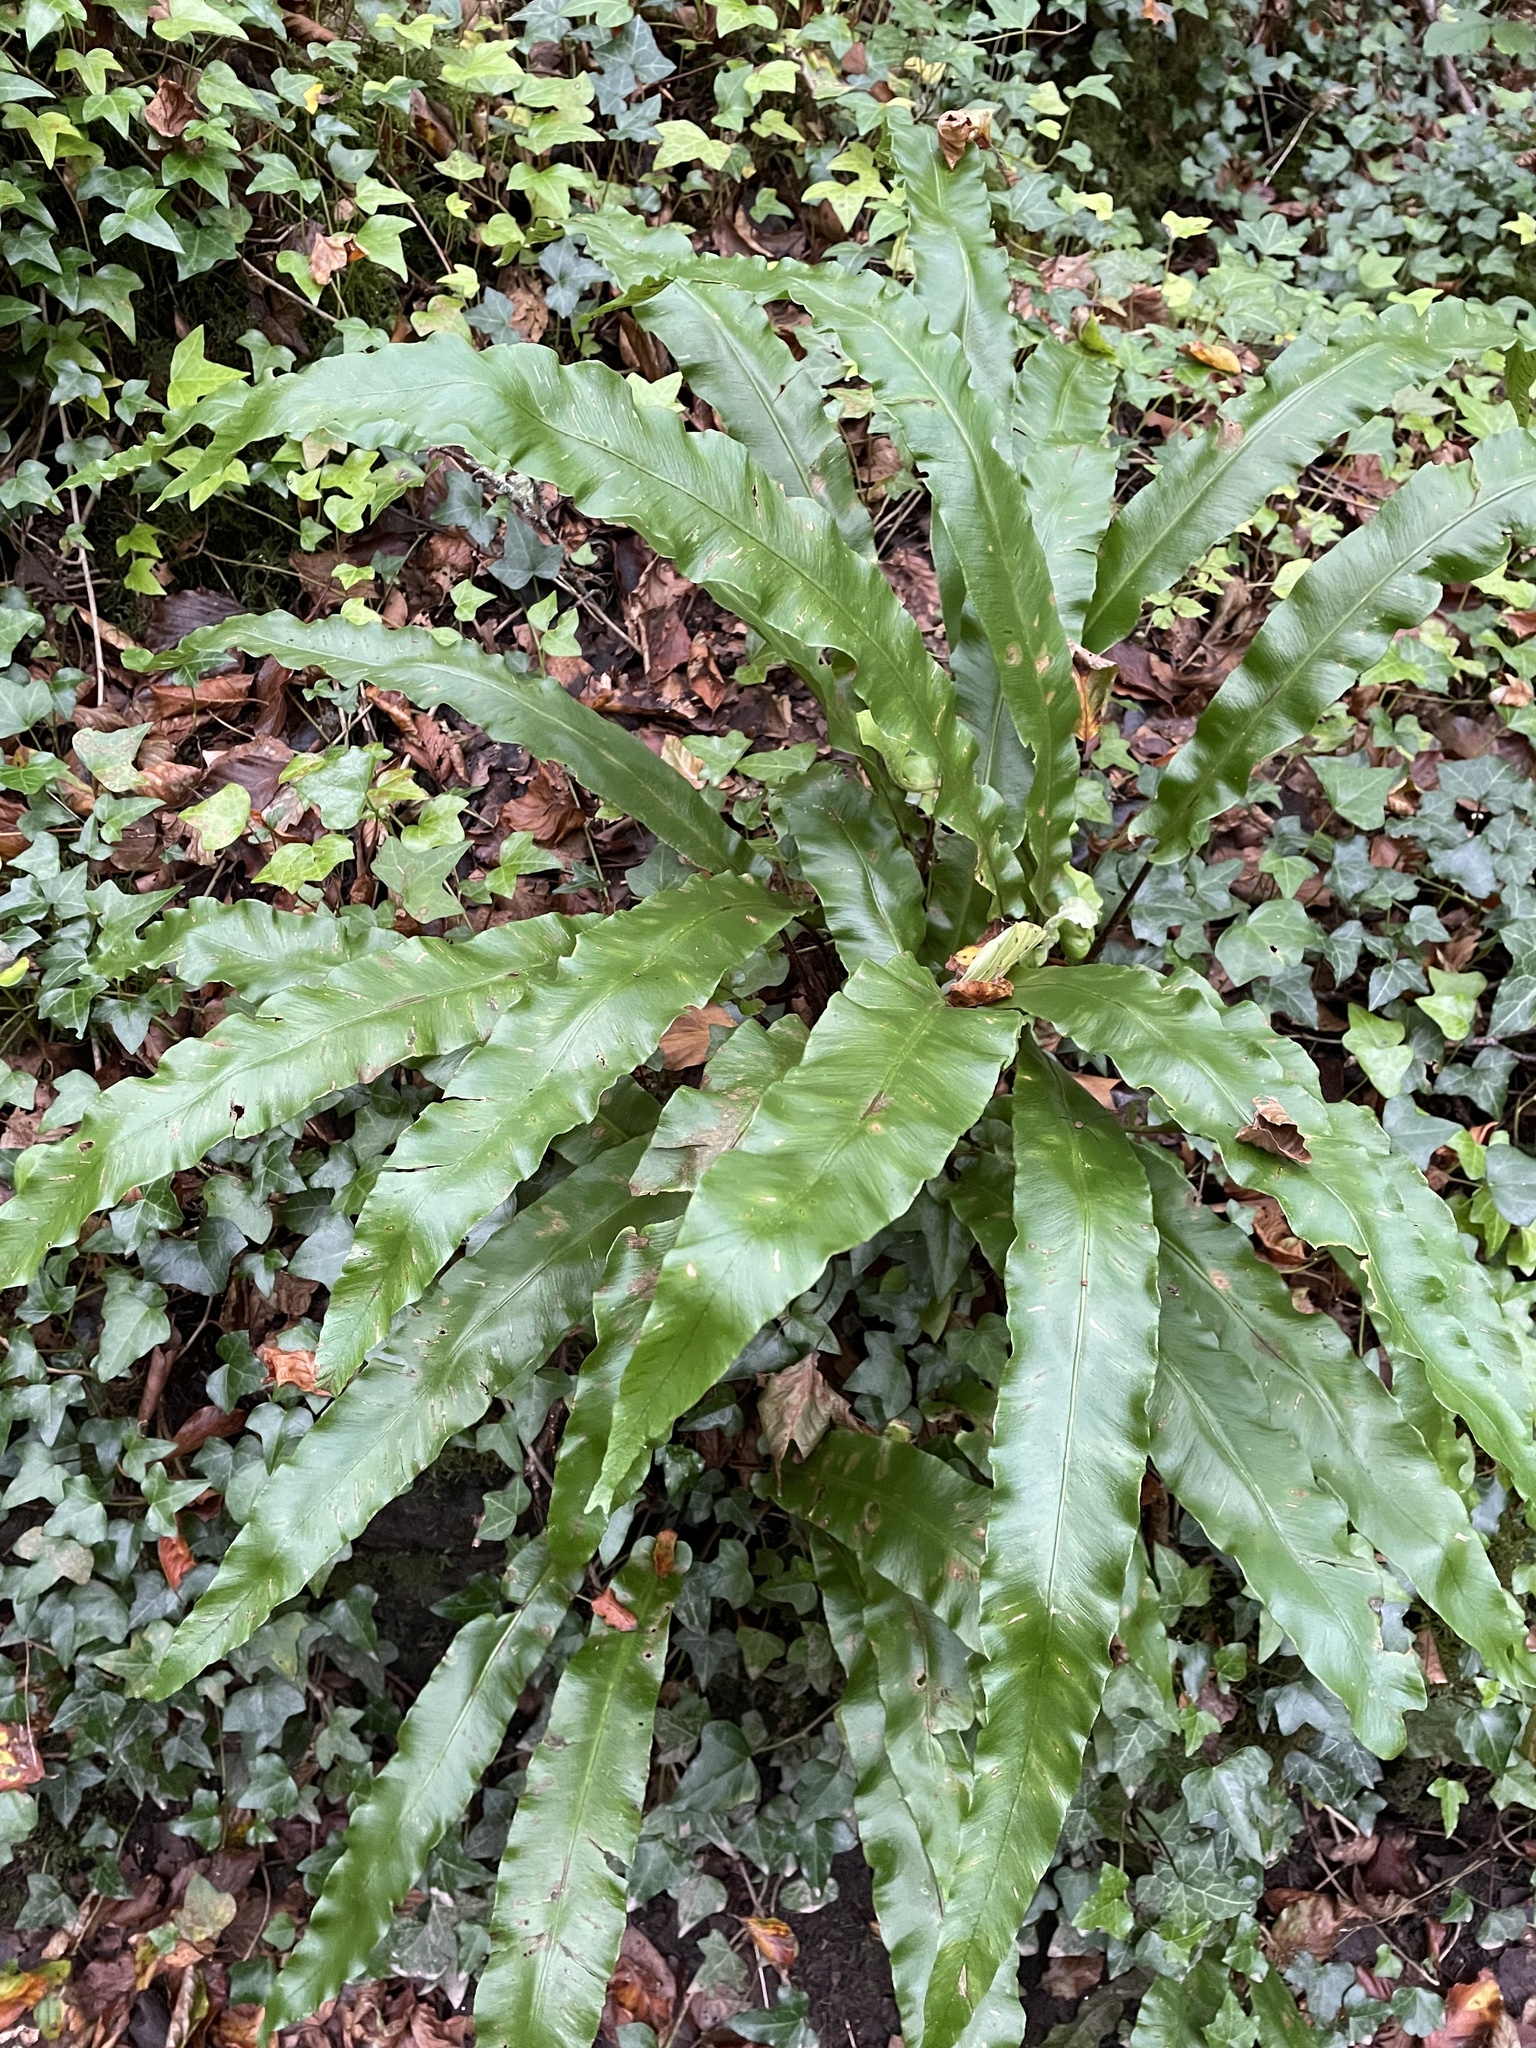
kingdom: Plantae
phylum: Tracheophyta
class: Polypodiopsida
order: Polypodiales
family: Aspleniaceae
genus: Asplenium
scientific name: Asplenium scolopendrium
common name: Hart's-tongue fern
